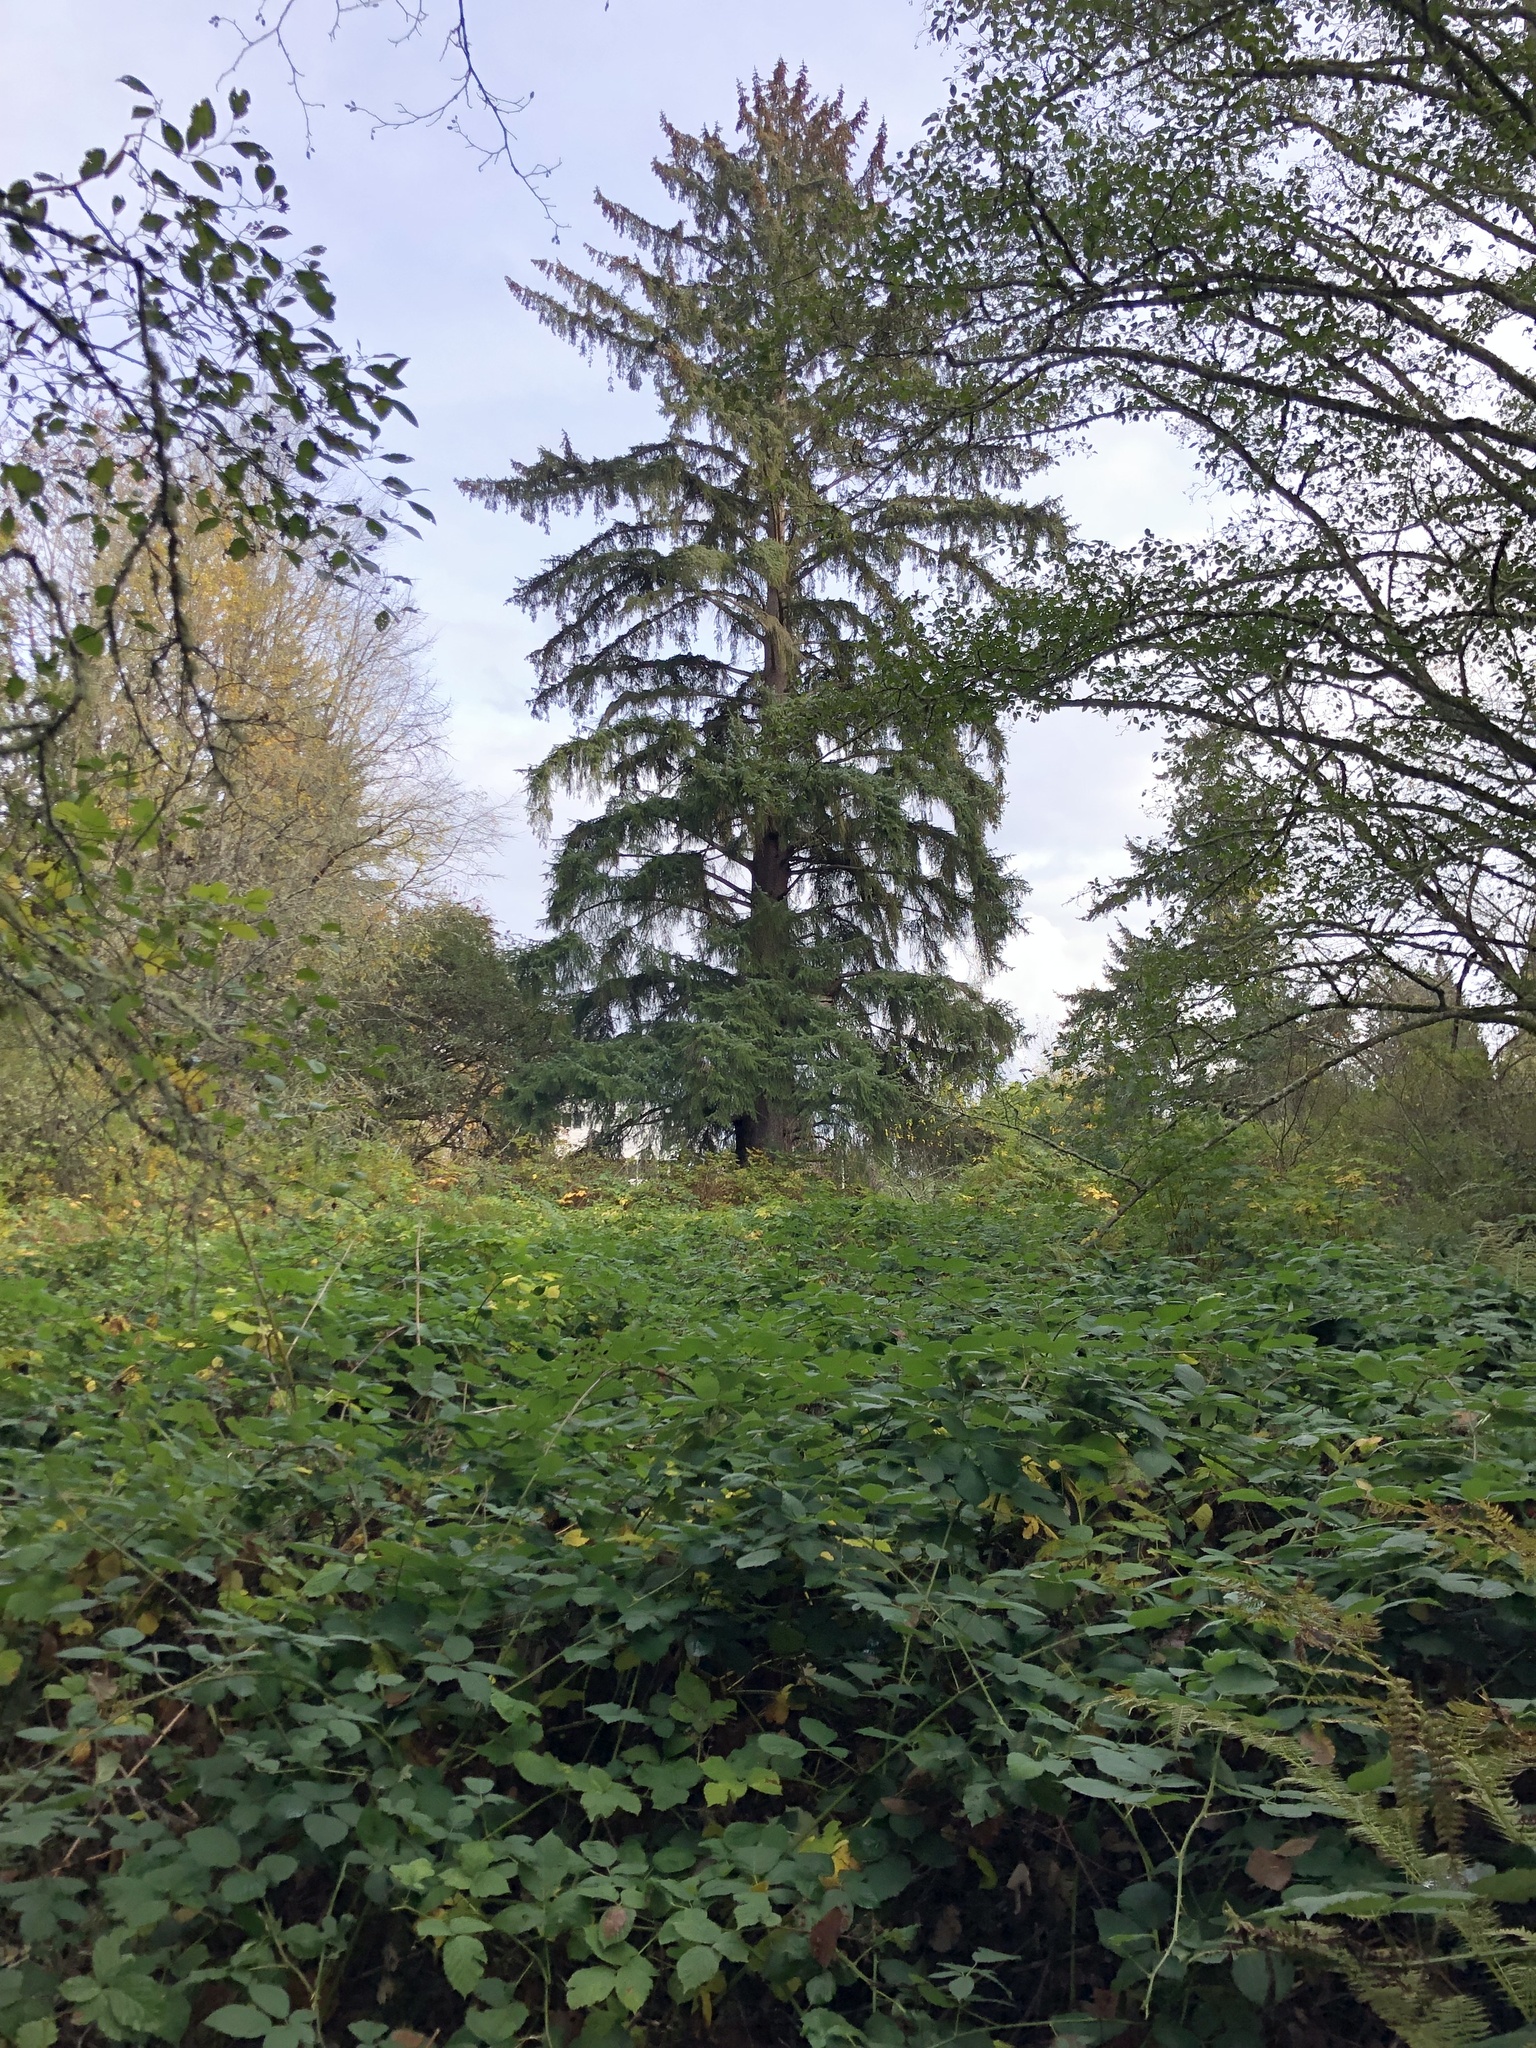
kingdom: Plantae
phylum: Tracheophyta
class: Pinopsida
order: Pinales
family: Pinaceae
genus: Picea
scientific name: Picea sitchensis
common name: Sitka spruce
